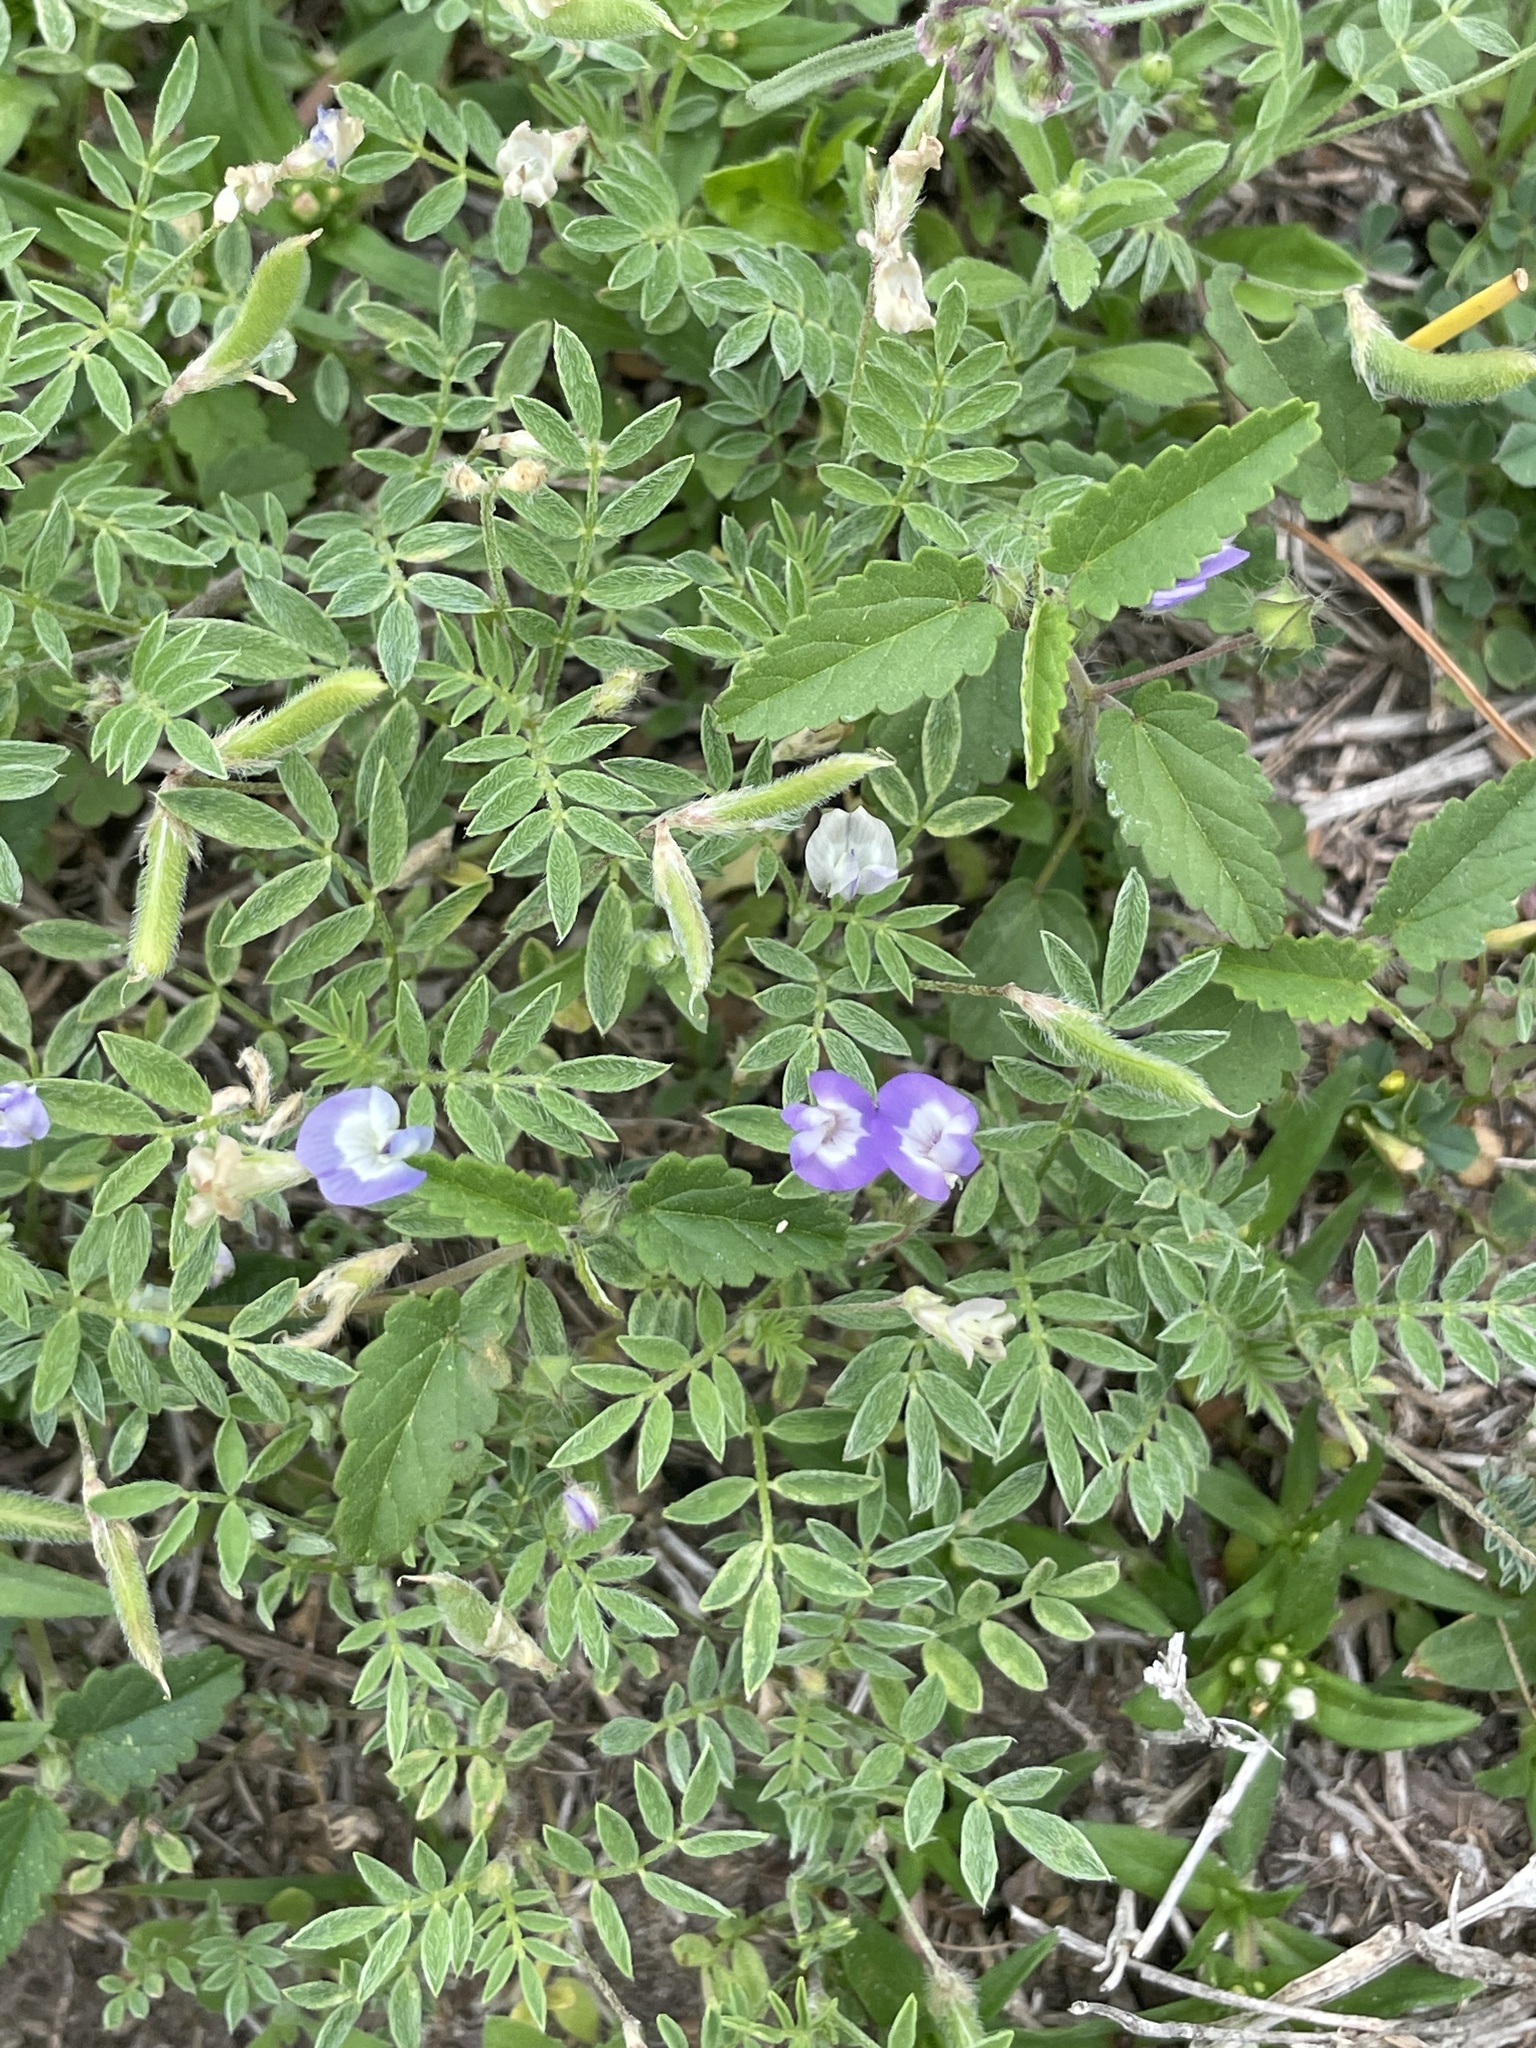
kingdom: Plantae
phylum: Tracheophyta
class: Magnoliopsida
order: Fabales
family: Fabaceae
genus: Astragalus
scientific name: Astragalus nuttallianus
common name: Smallflowered milkvetch
